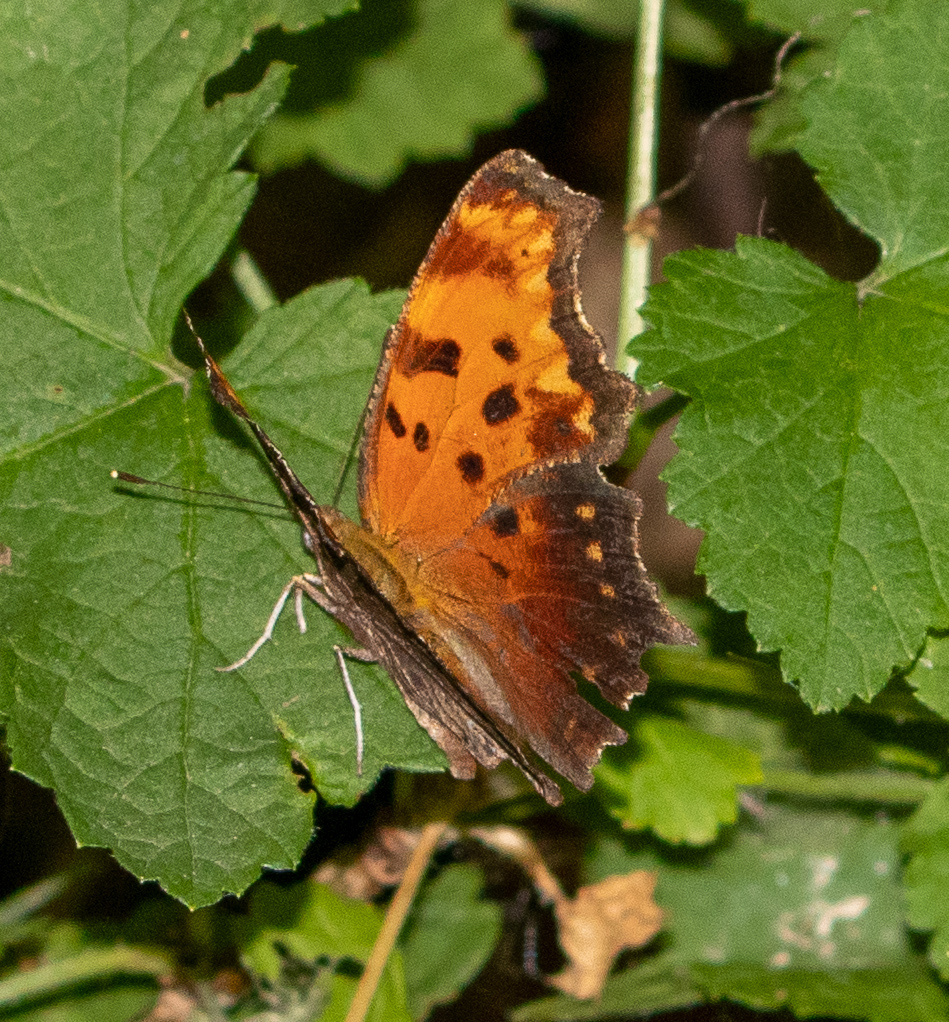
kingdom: Animalia
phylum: Arthropoda
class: Insecta
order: Lepidoptera
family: Nymphalidae
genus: Polygonia
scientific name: Polygonia progne
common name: Gray comma
